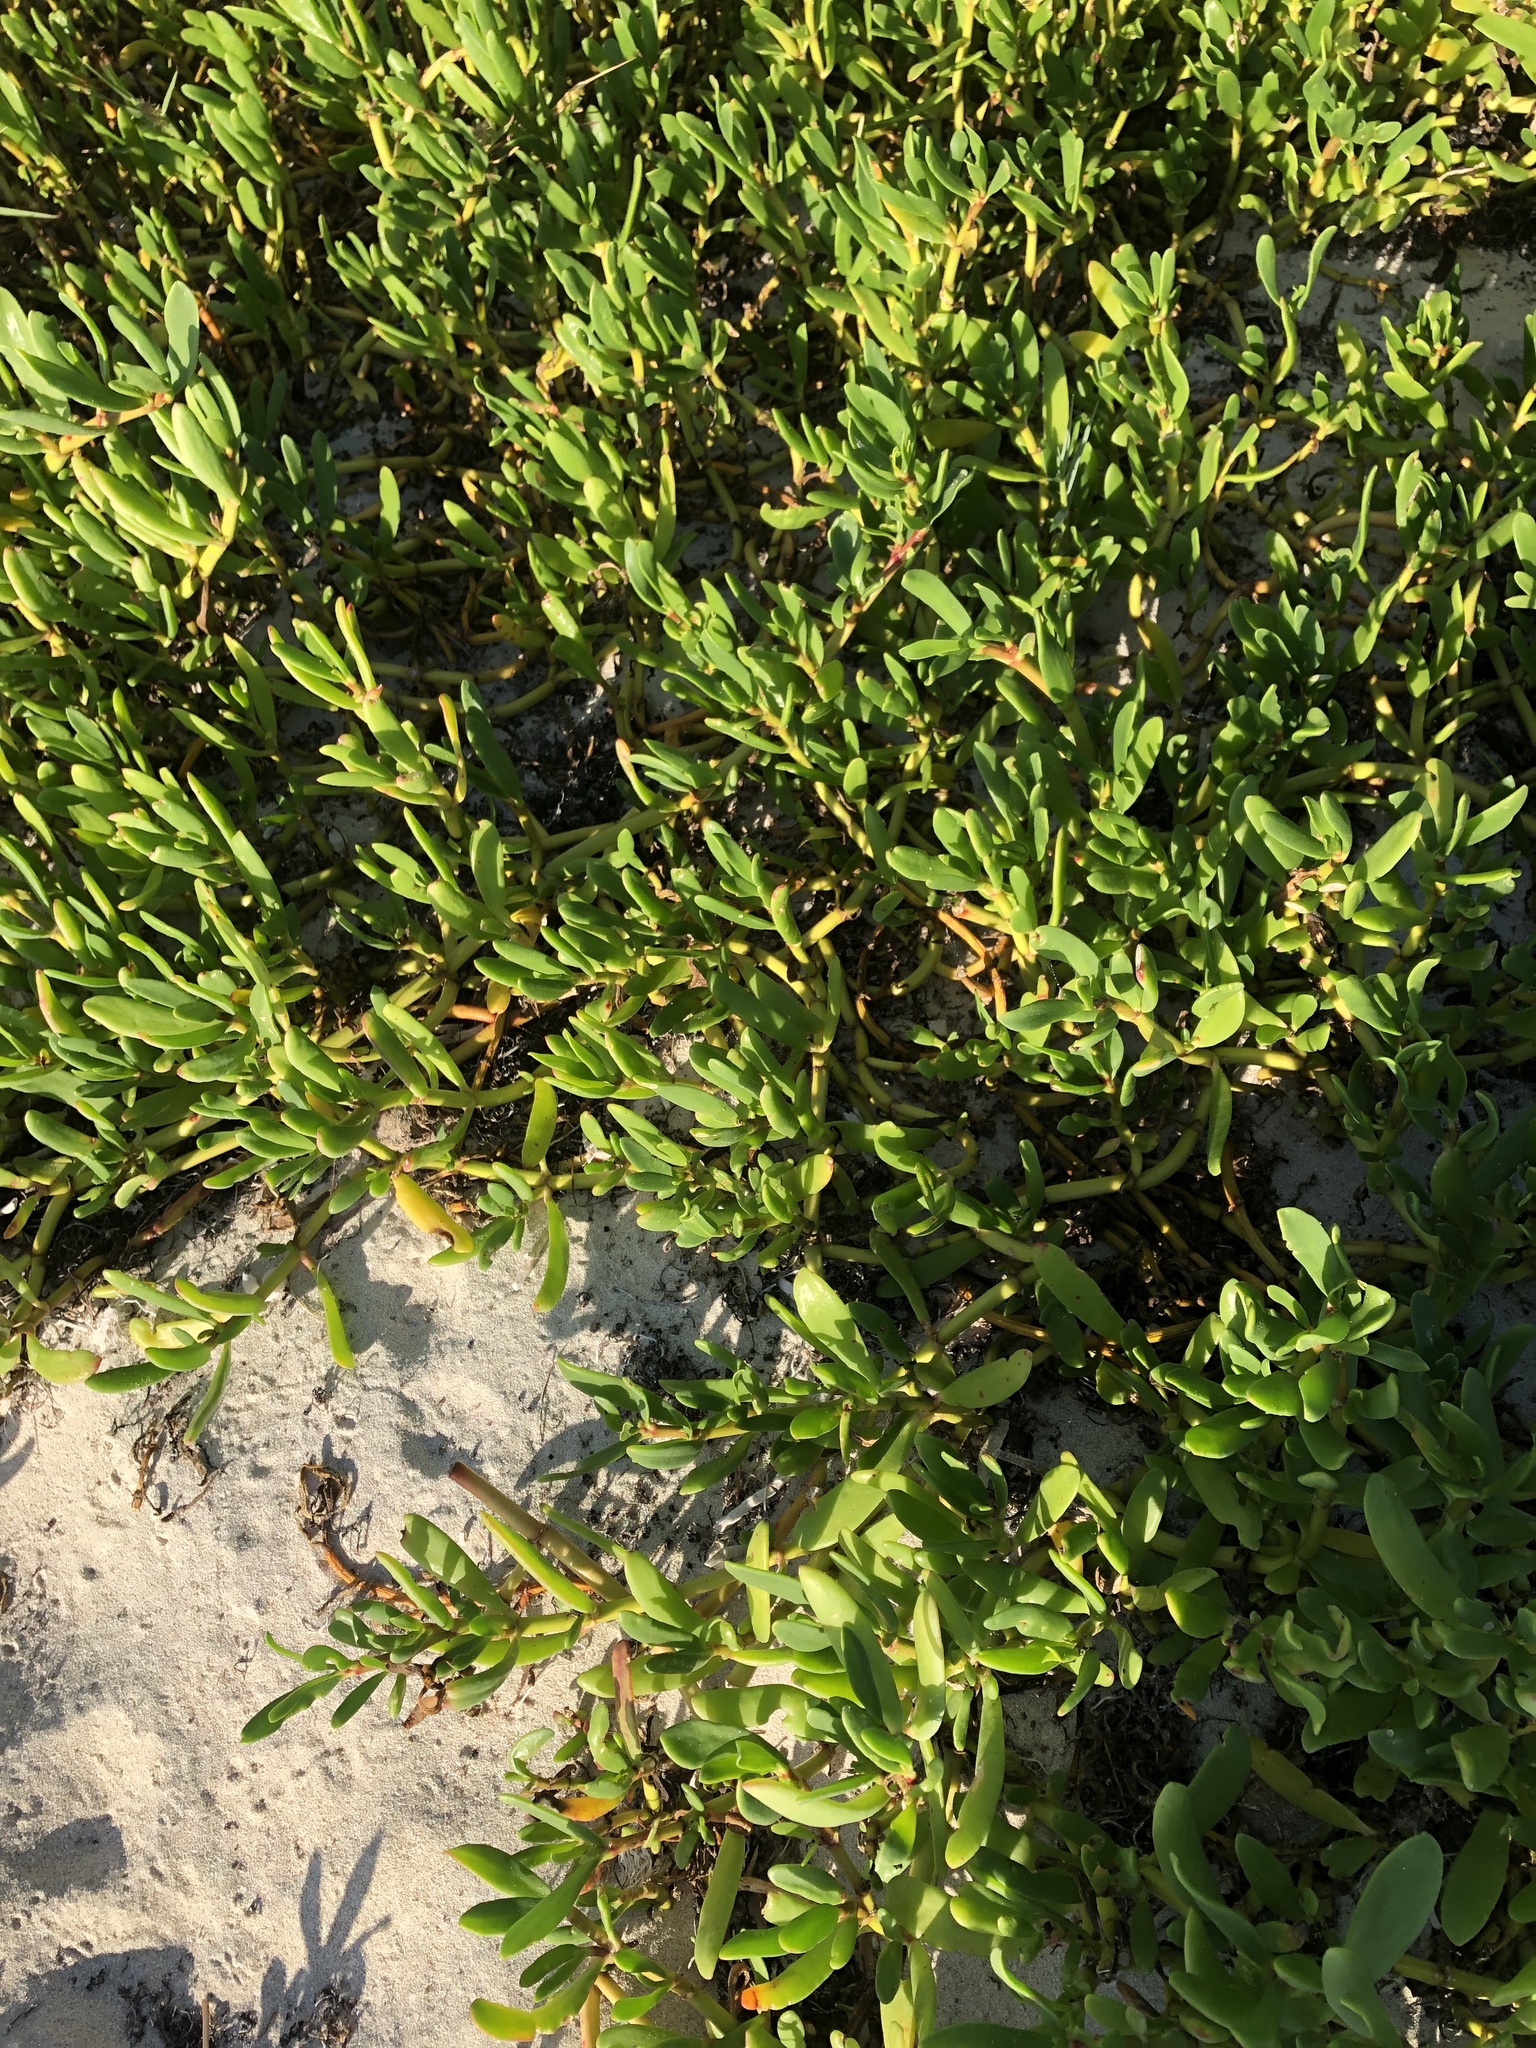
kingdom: Plantae
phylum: Tracheophyta
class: Magnoliopsida
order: Caryophyllales
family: Aizoaceae
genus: Sesuvium
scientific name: Sesuvium portulacastrum
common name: Sea-purslane
